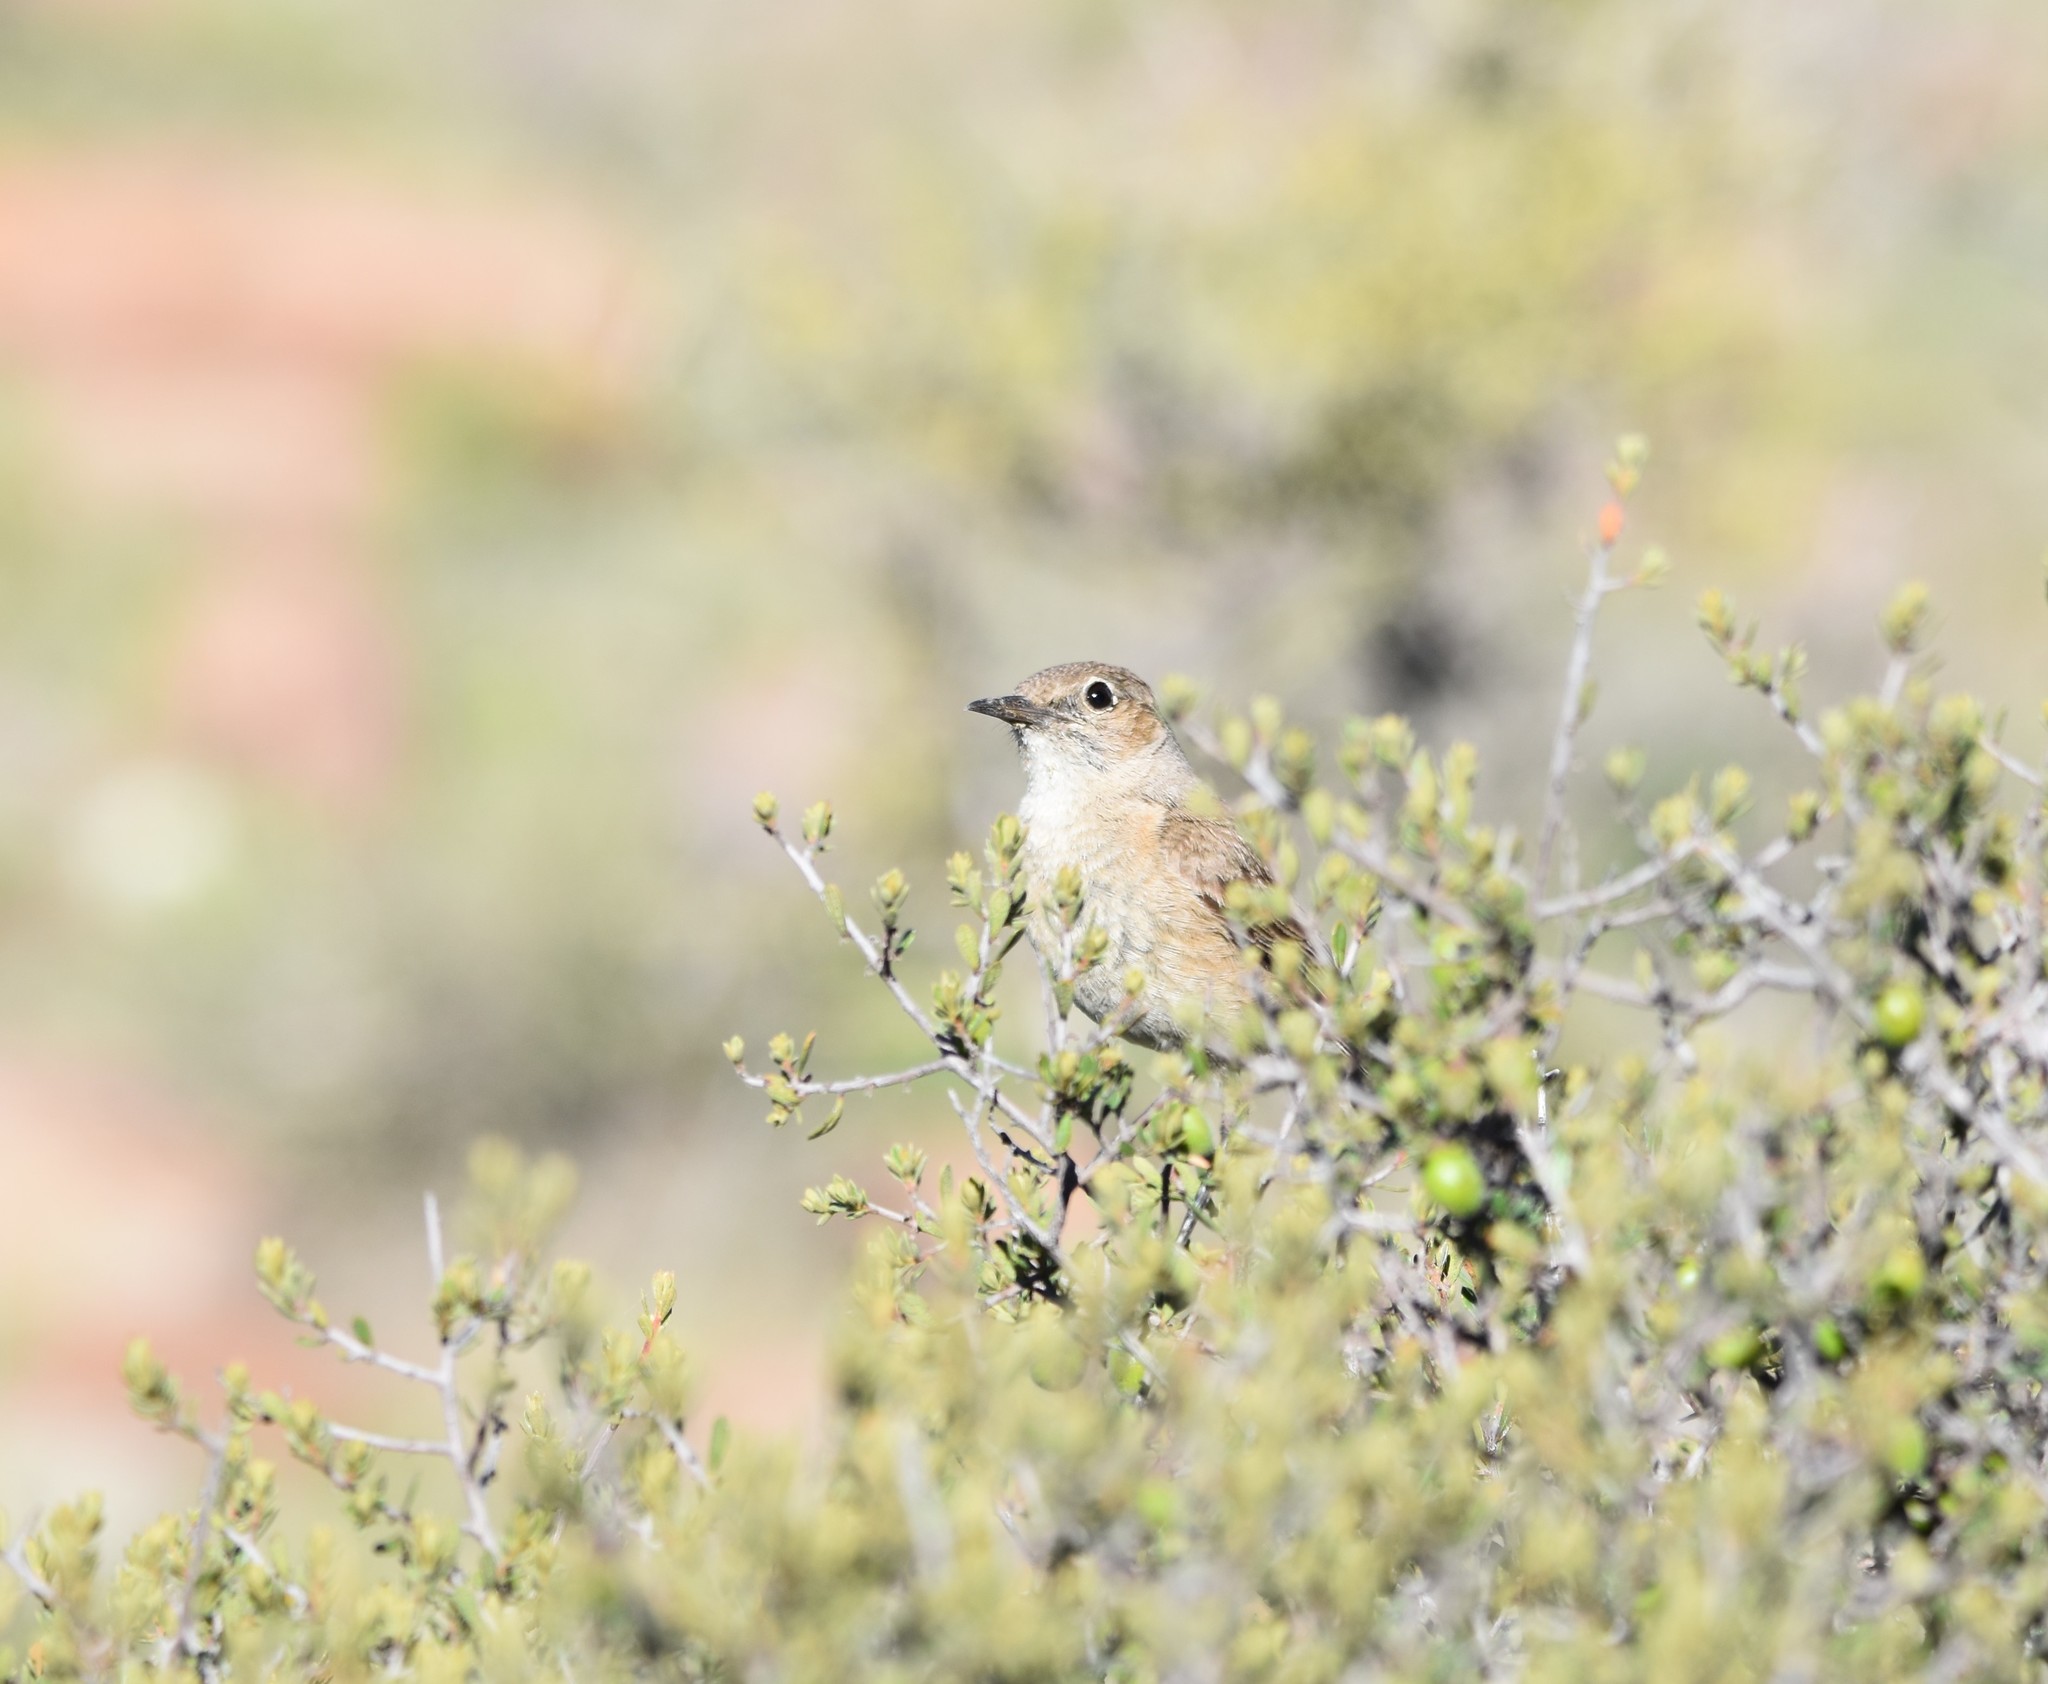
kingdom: Animalia
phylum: Chordata
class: Aves
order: Passeriformes
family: Muscicapidae
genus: Emarginata
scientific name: Emarginata sinuata
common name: Sickle-winged chat
